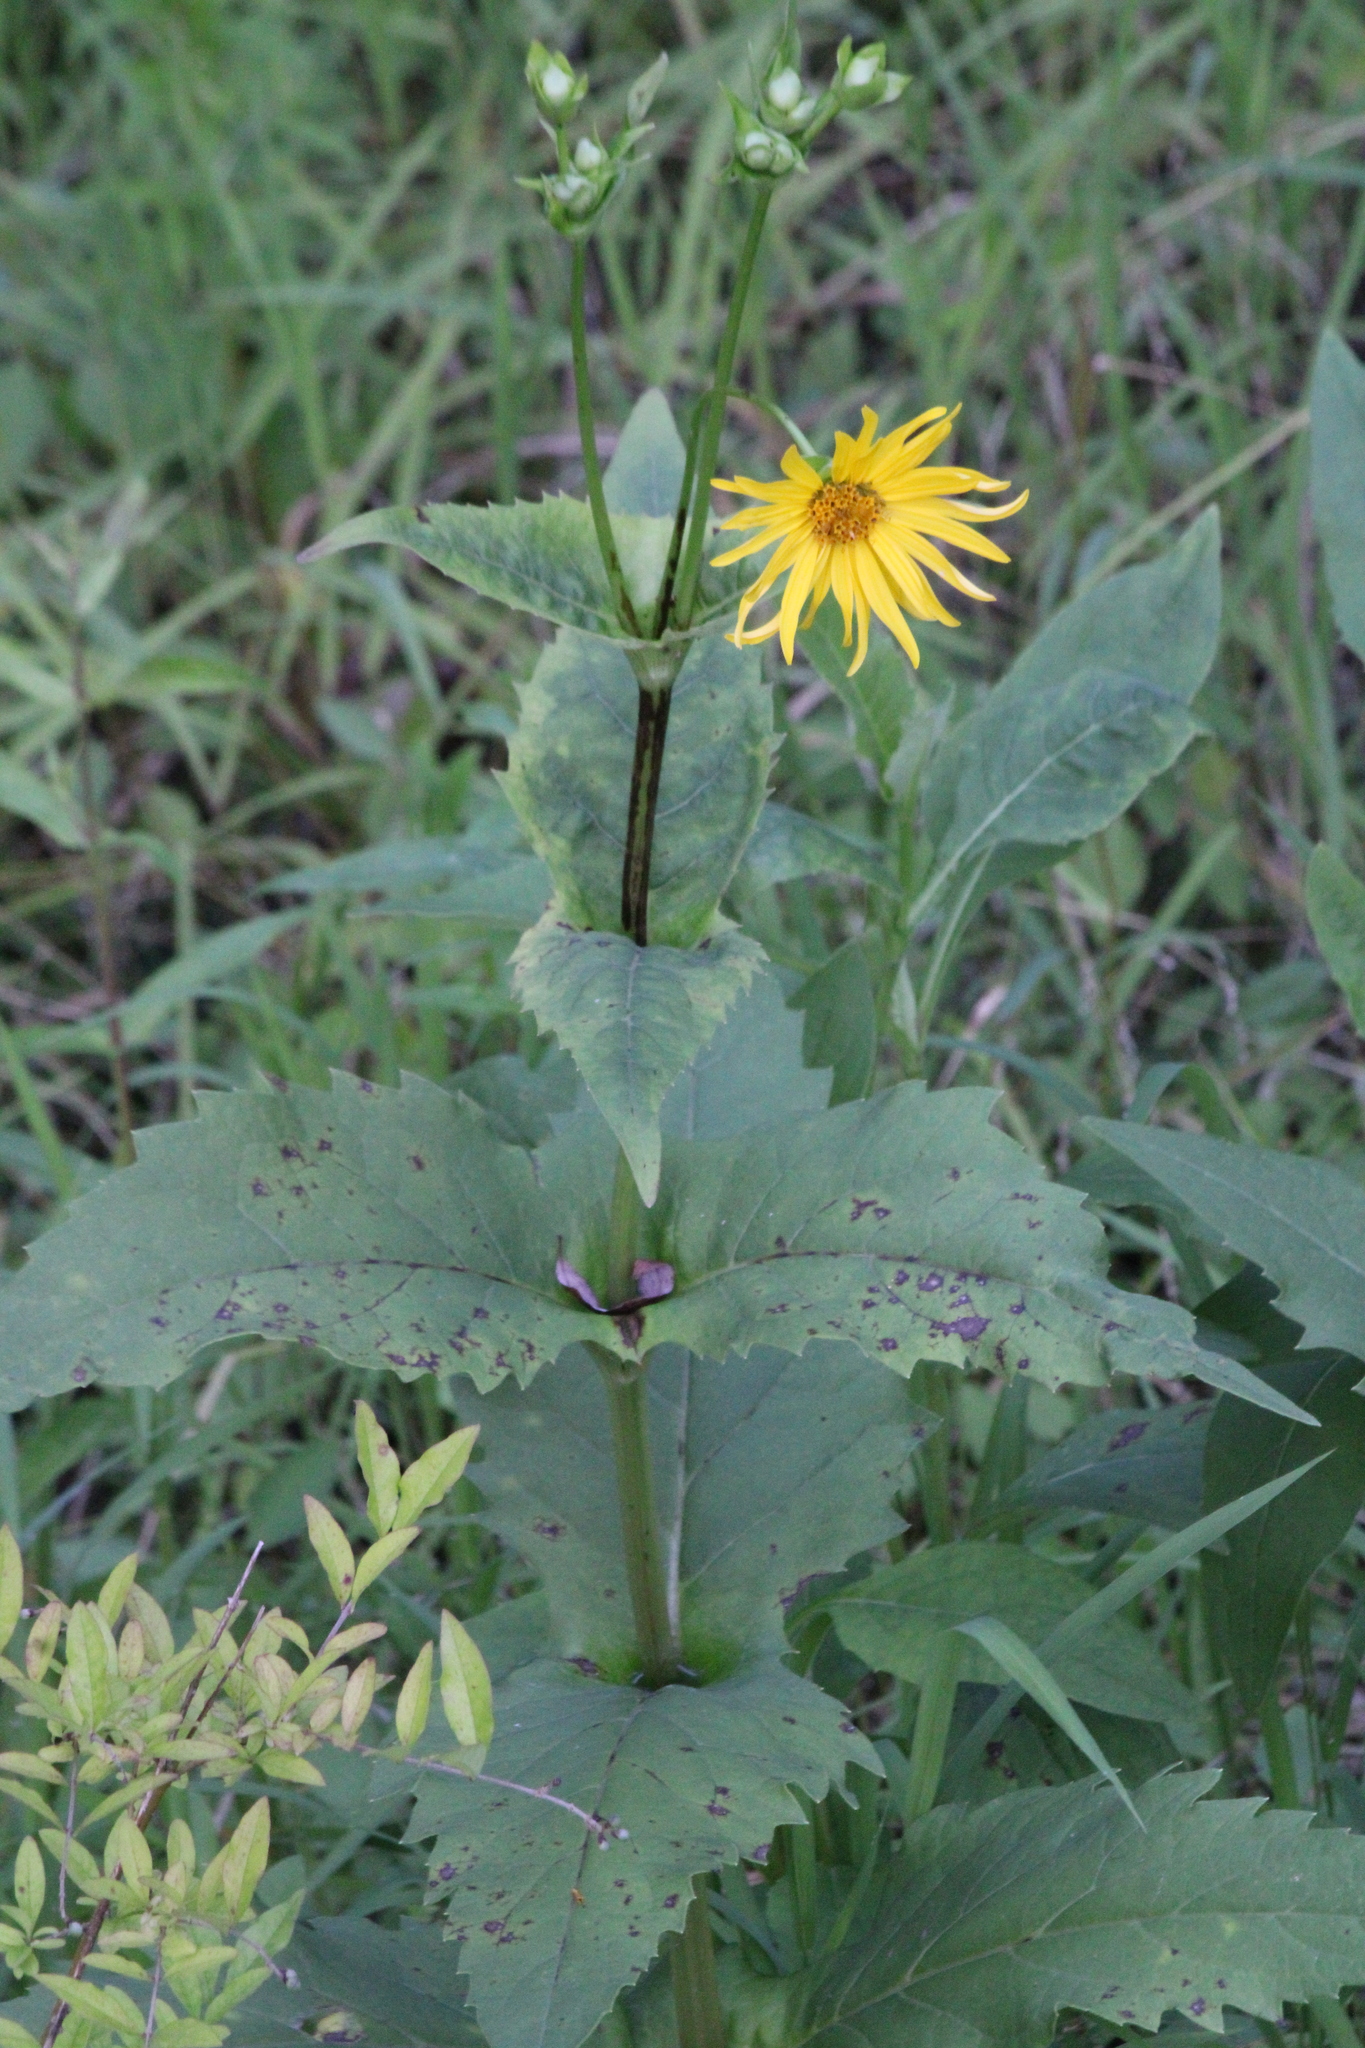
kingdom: Plantae
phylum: Tracheophyta
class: Magnoliopsida
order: Asterales
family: Asteraceae
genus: Silphium
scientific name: Silphium perfoliatum
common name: Cup-plant
